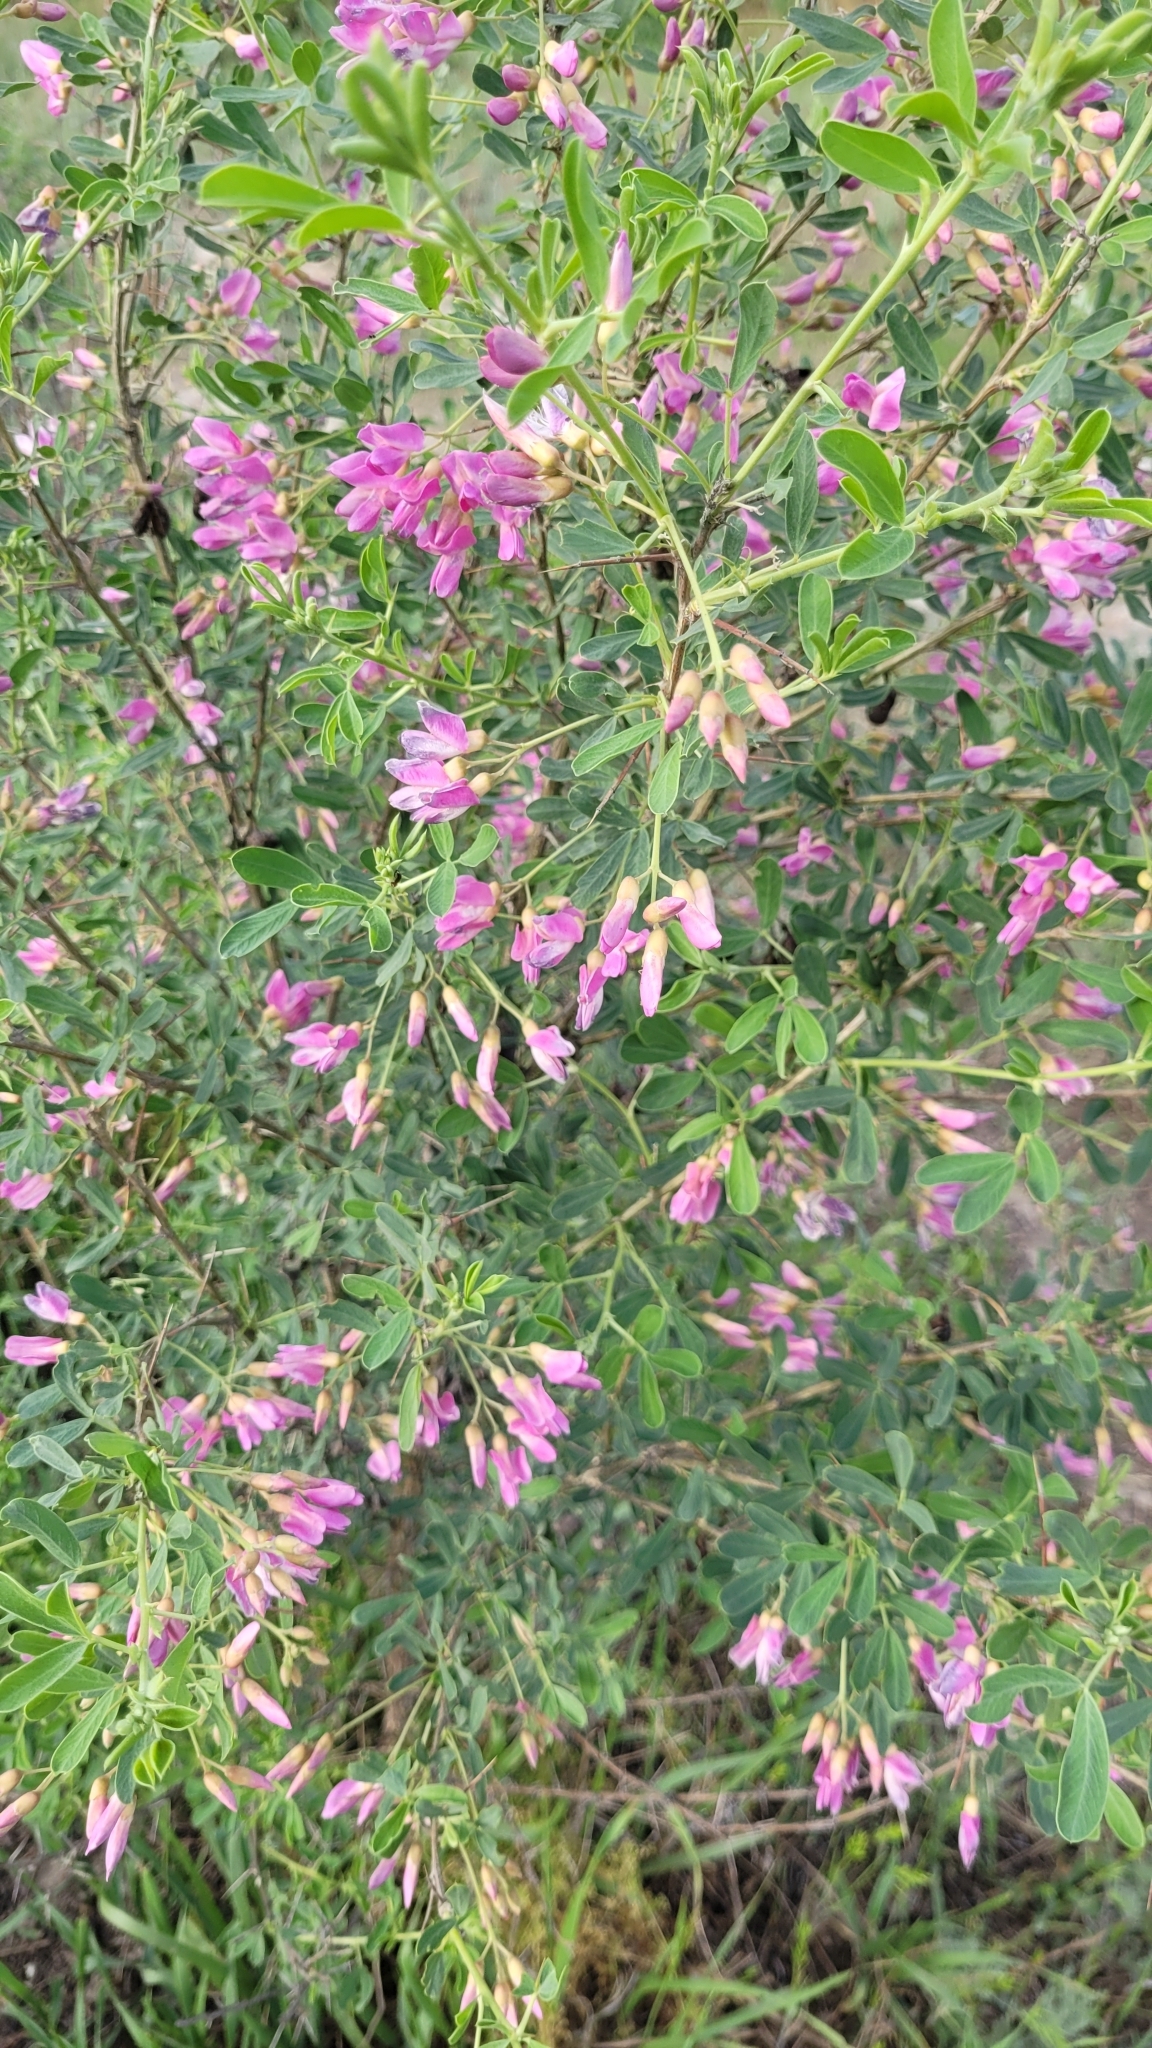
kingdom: Plantae
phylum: Tracheophyta
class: Magnoliopsida
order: Fabales
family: Fabaceae
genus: Caragana
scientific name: Caragana halodendron
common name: Siberian salt-tree
